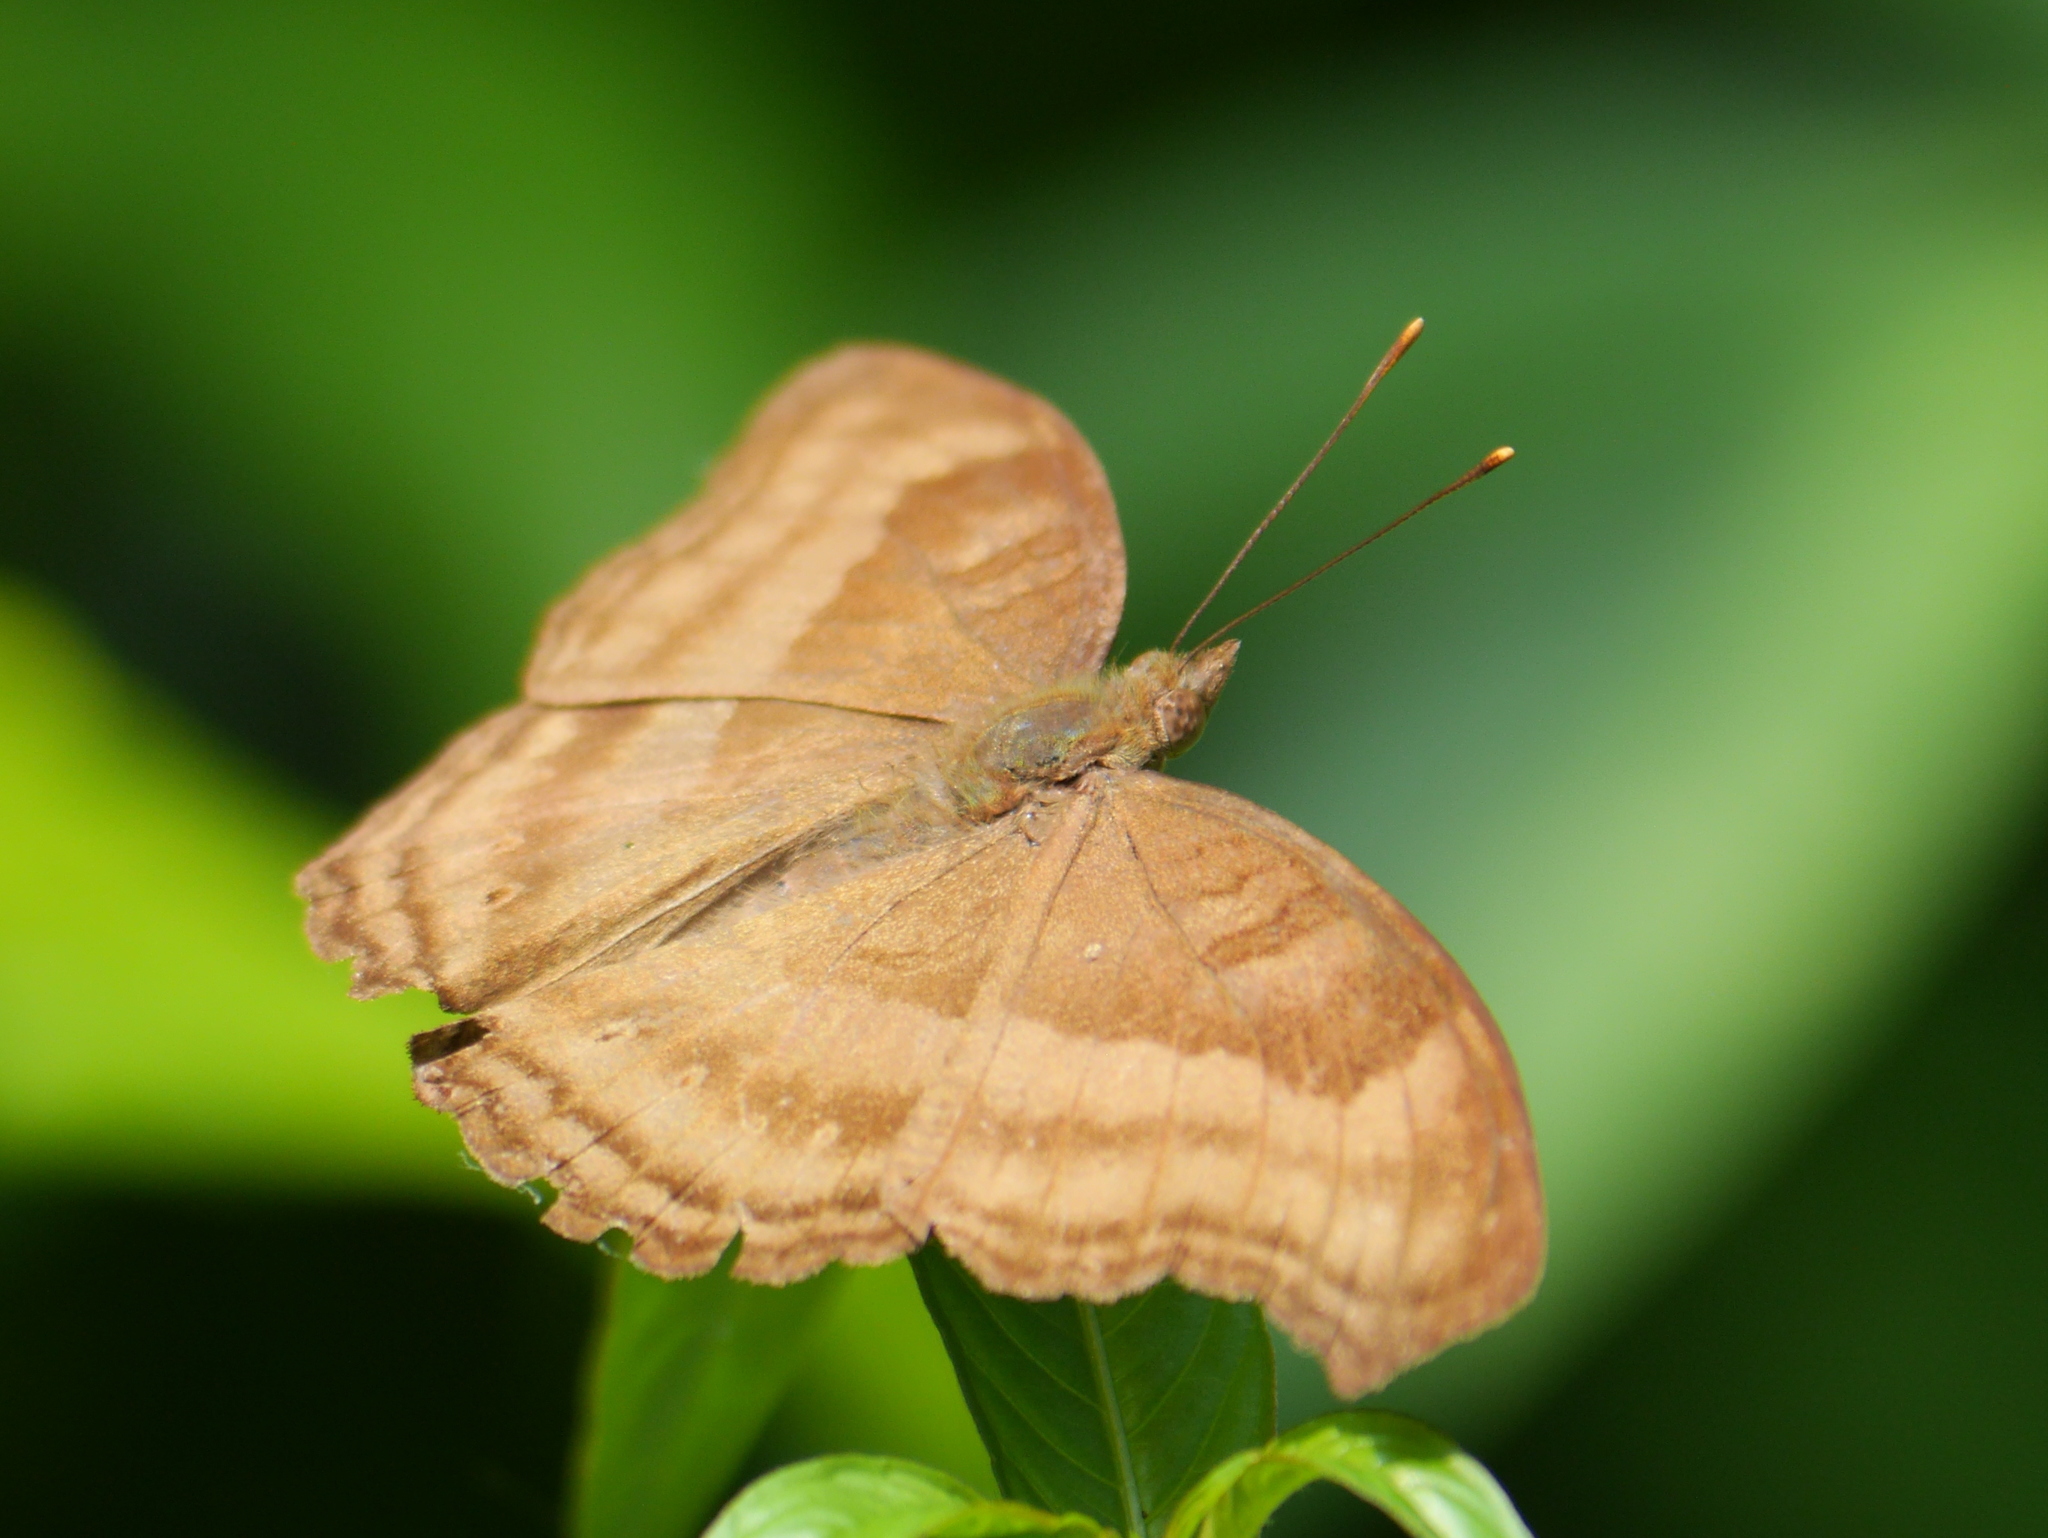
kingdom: Animalia
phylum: Arthropoda
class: Insecta
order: Lepidoptera
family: Nymphalidae
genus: Junonia
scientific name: Junonia iphita
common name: Chocolate pansy
